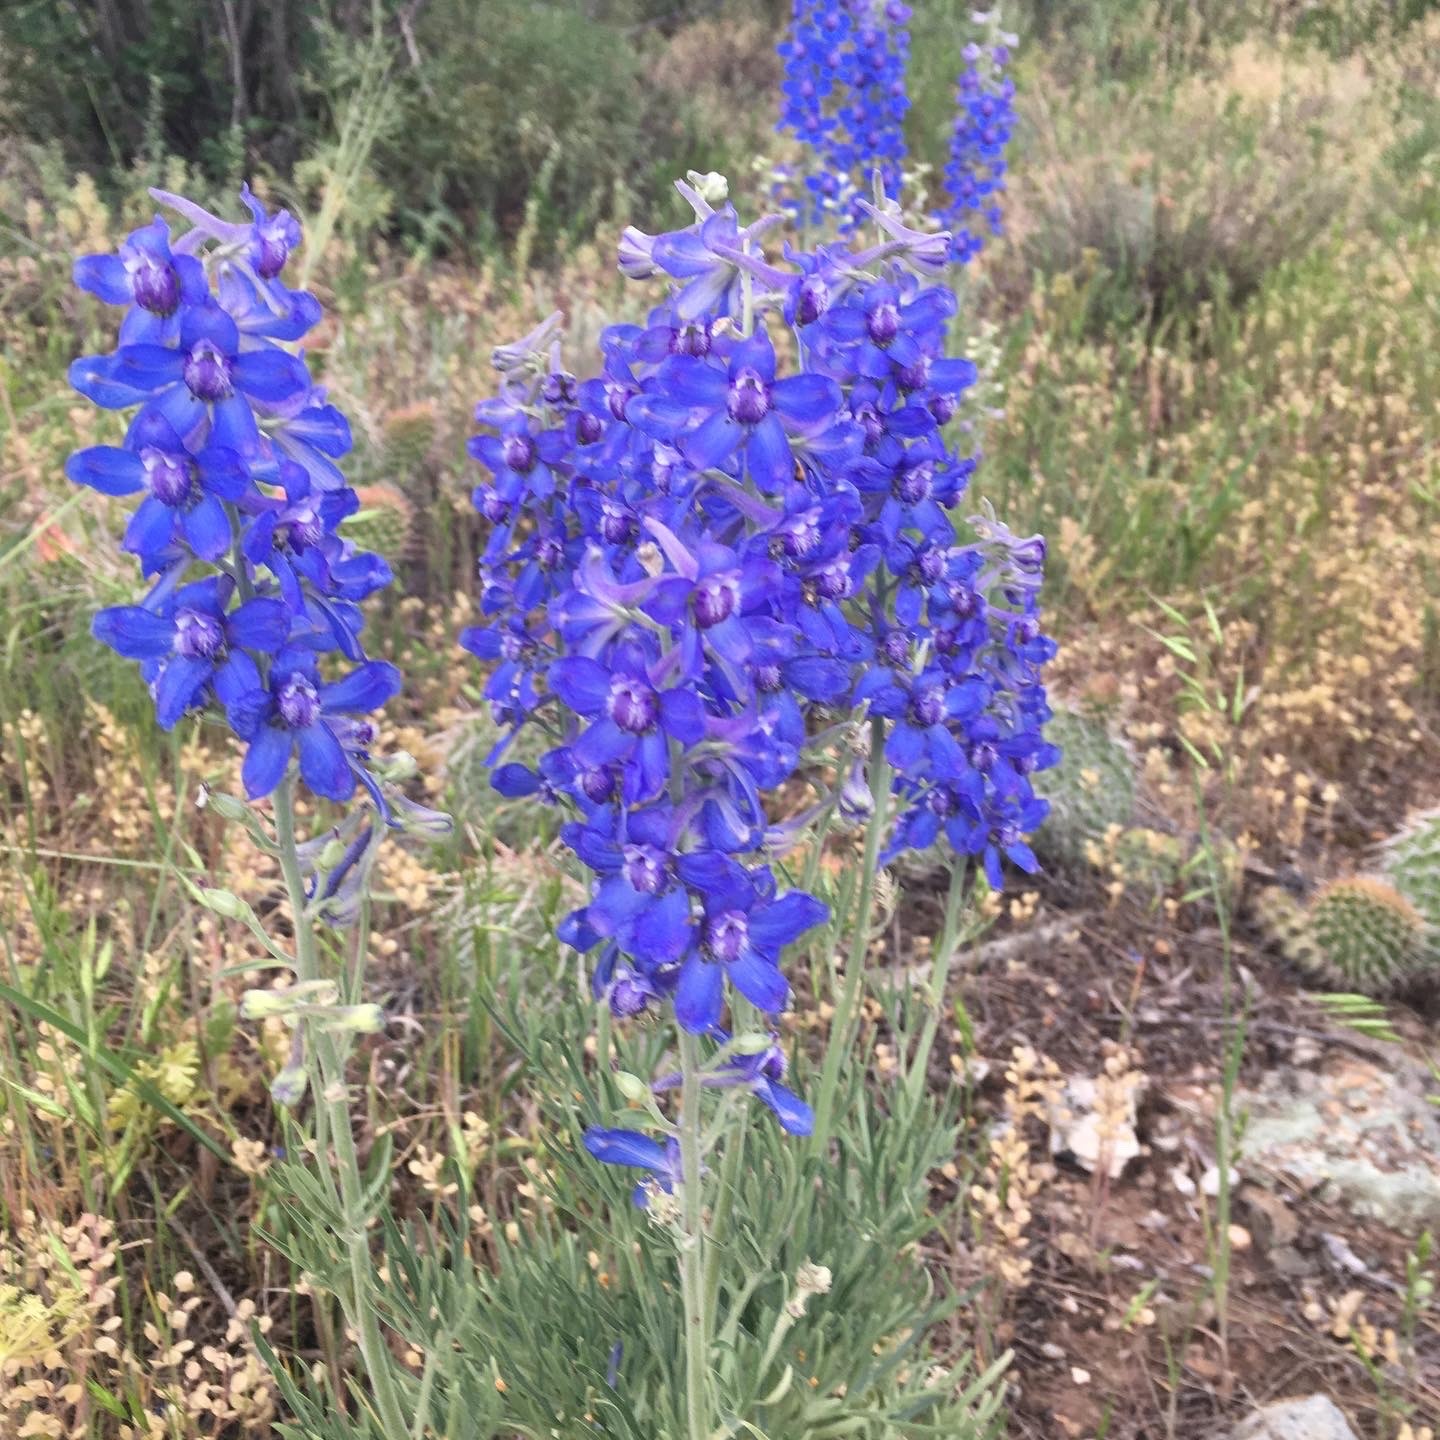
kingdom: Plantae
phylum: Tracheophyta
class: Magnoliopsida
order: Ranunculales
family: Ranunculaceae
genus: Delphinium
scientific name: Delphinium nuttallianum
